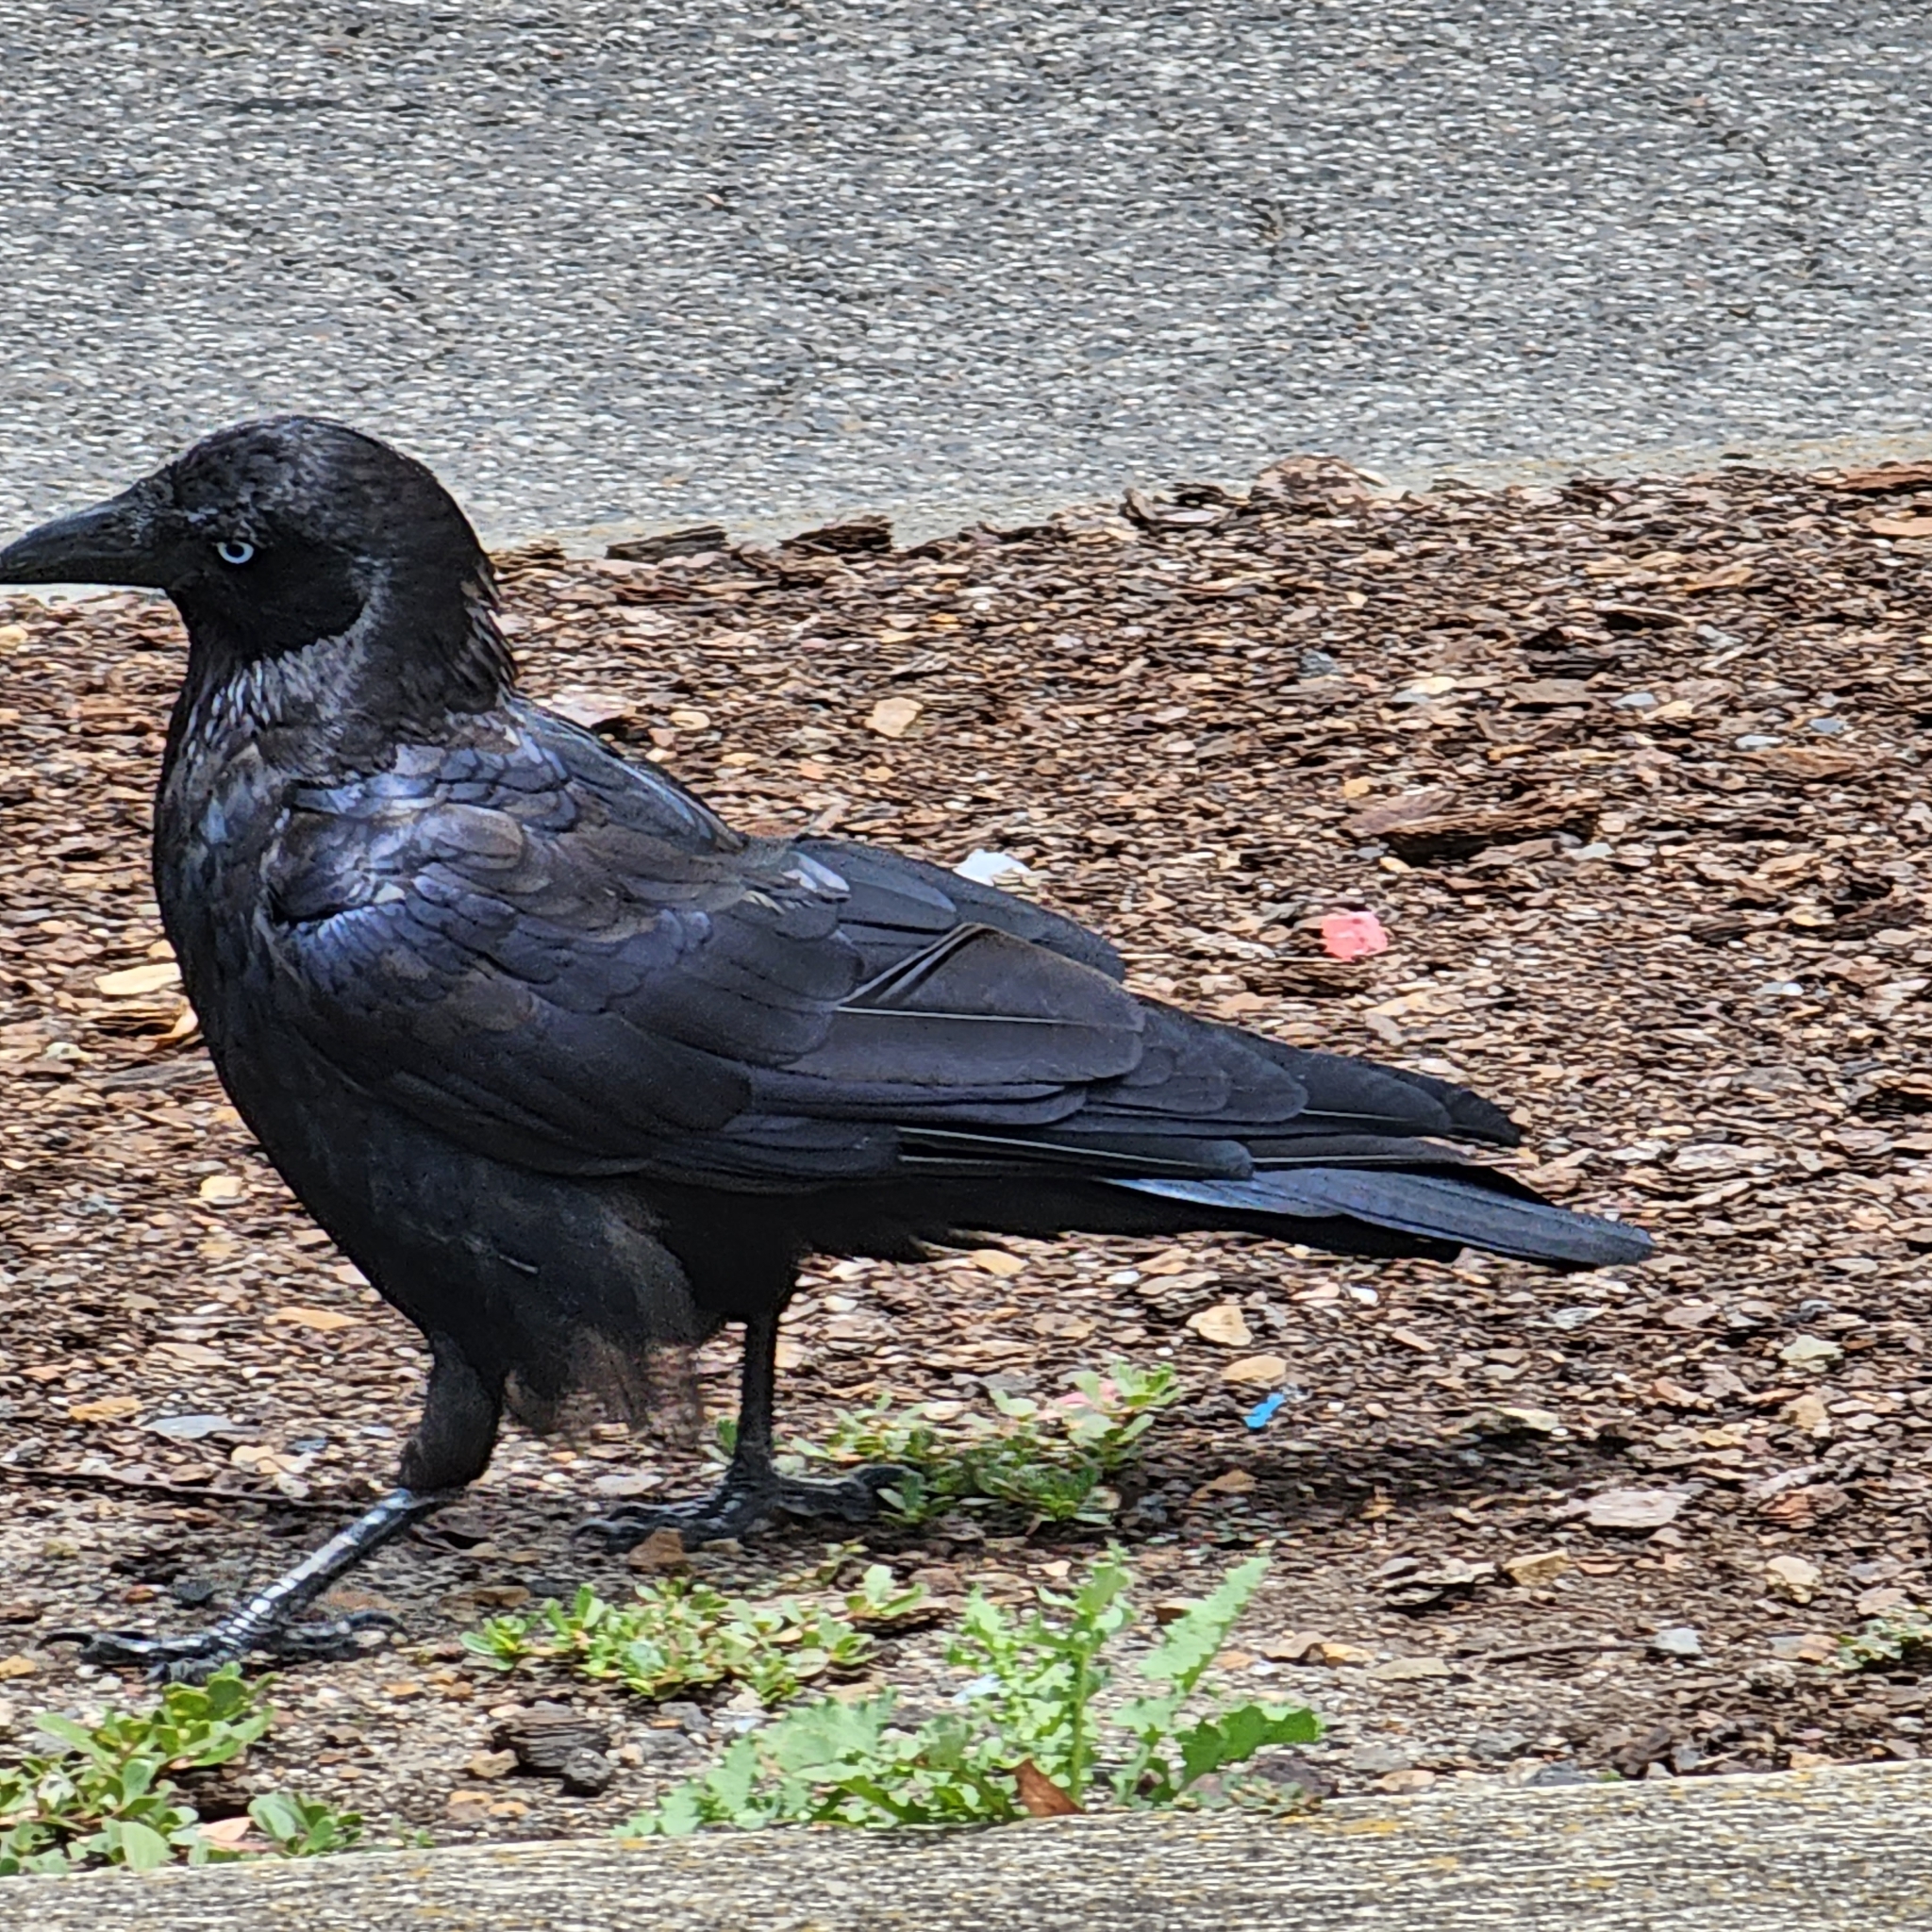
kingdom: Animalia
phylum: Chordata
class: Aves
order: Passeriformes
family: Corvidae
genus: Corvus
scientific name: Corvus mellori
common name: Little raven
